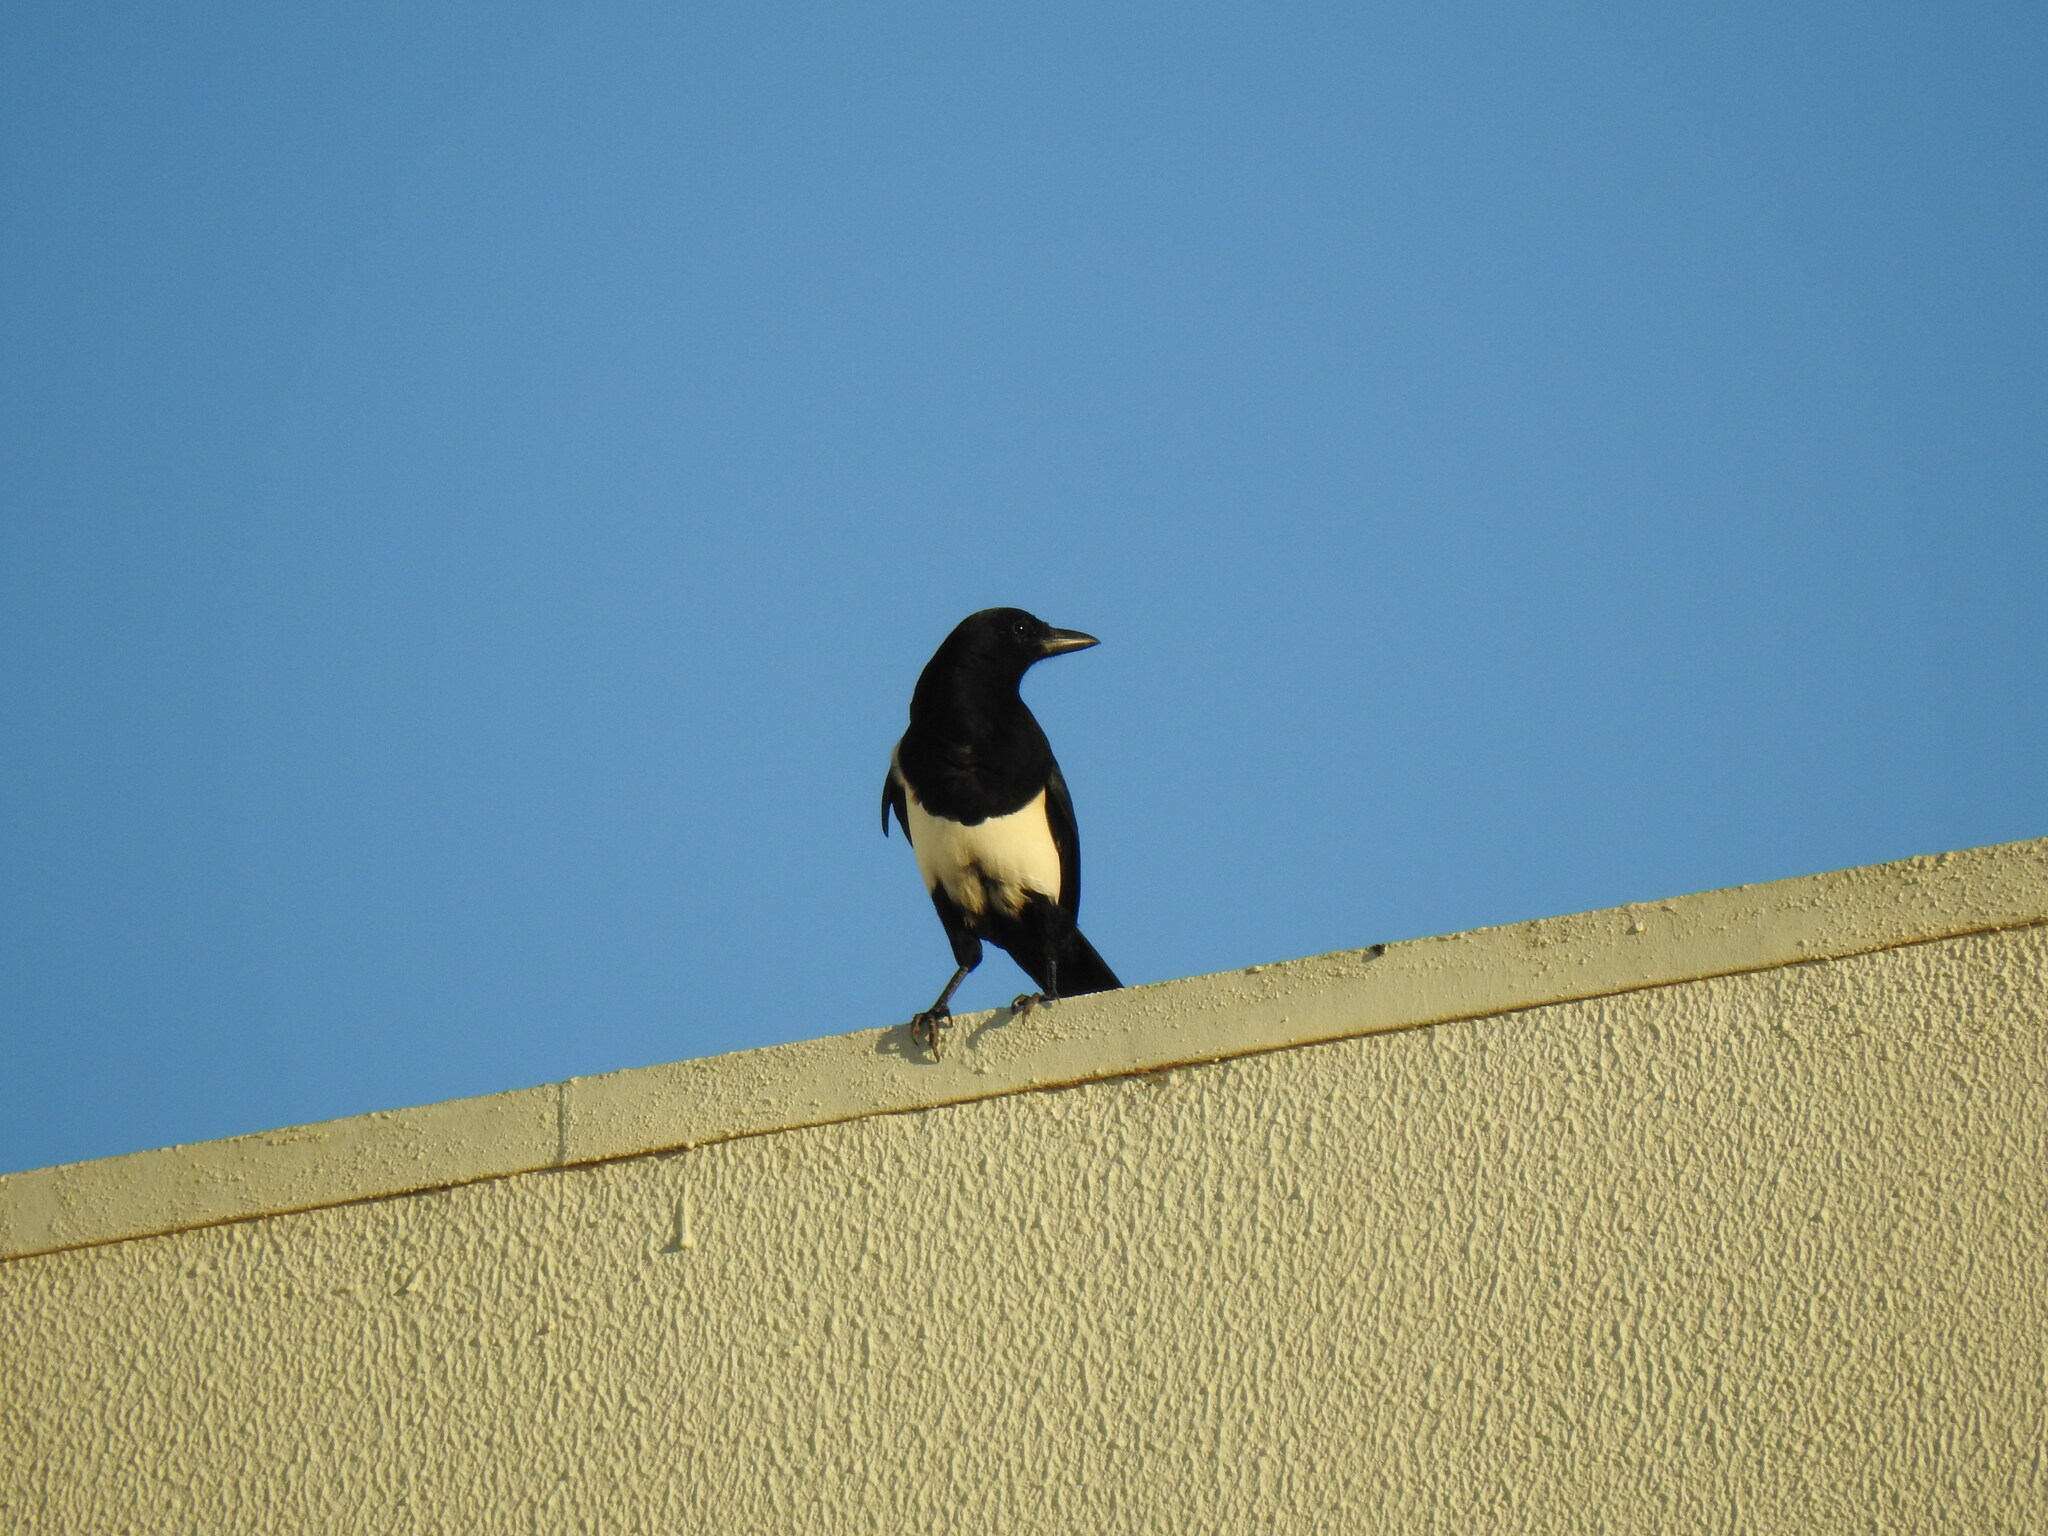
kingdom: Animalia
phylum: Chordata
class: Aves
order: Passeriformes
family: Corvidae
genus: Pica
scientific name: Pica pica
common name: Eurasian magpie
